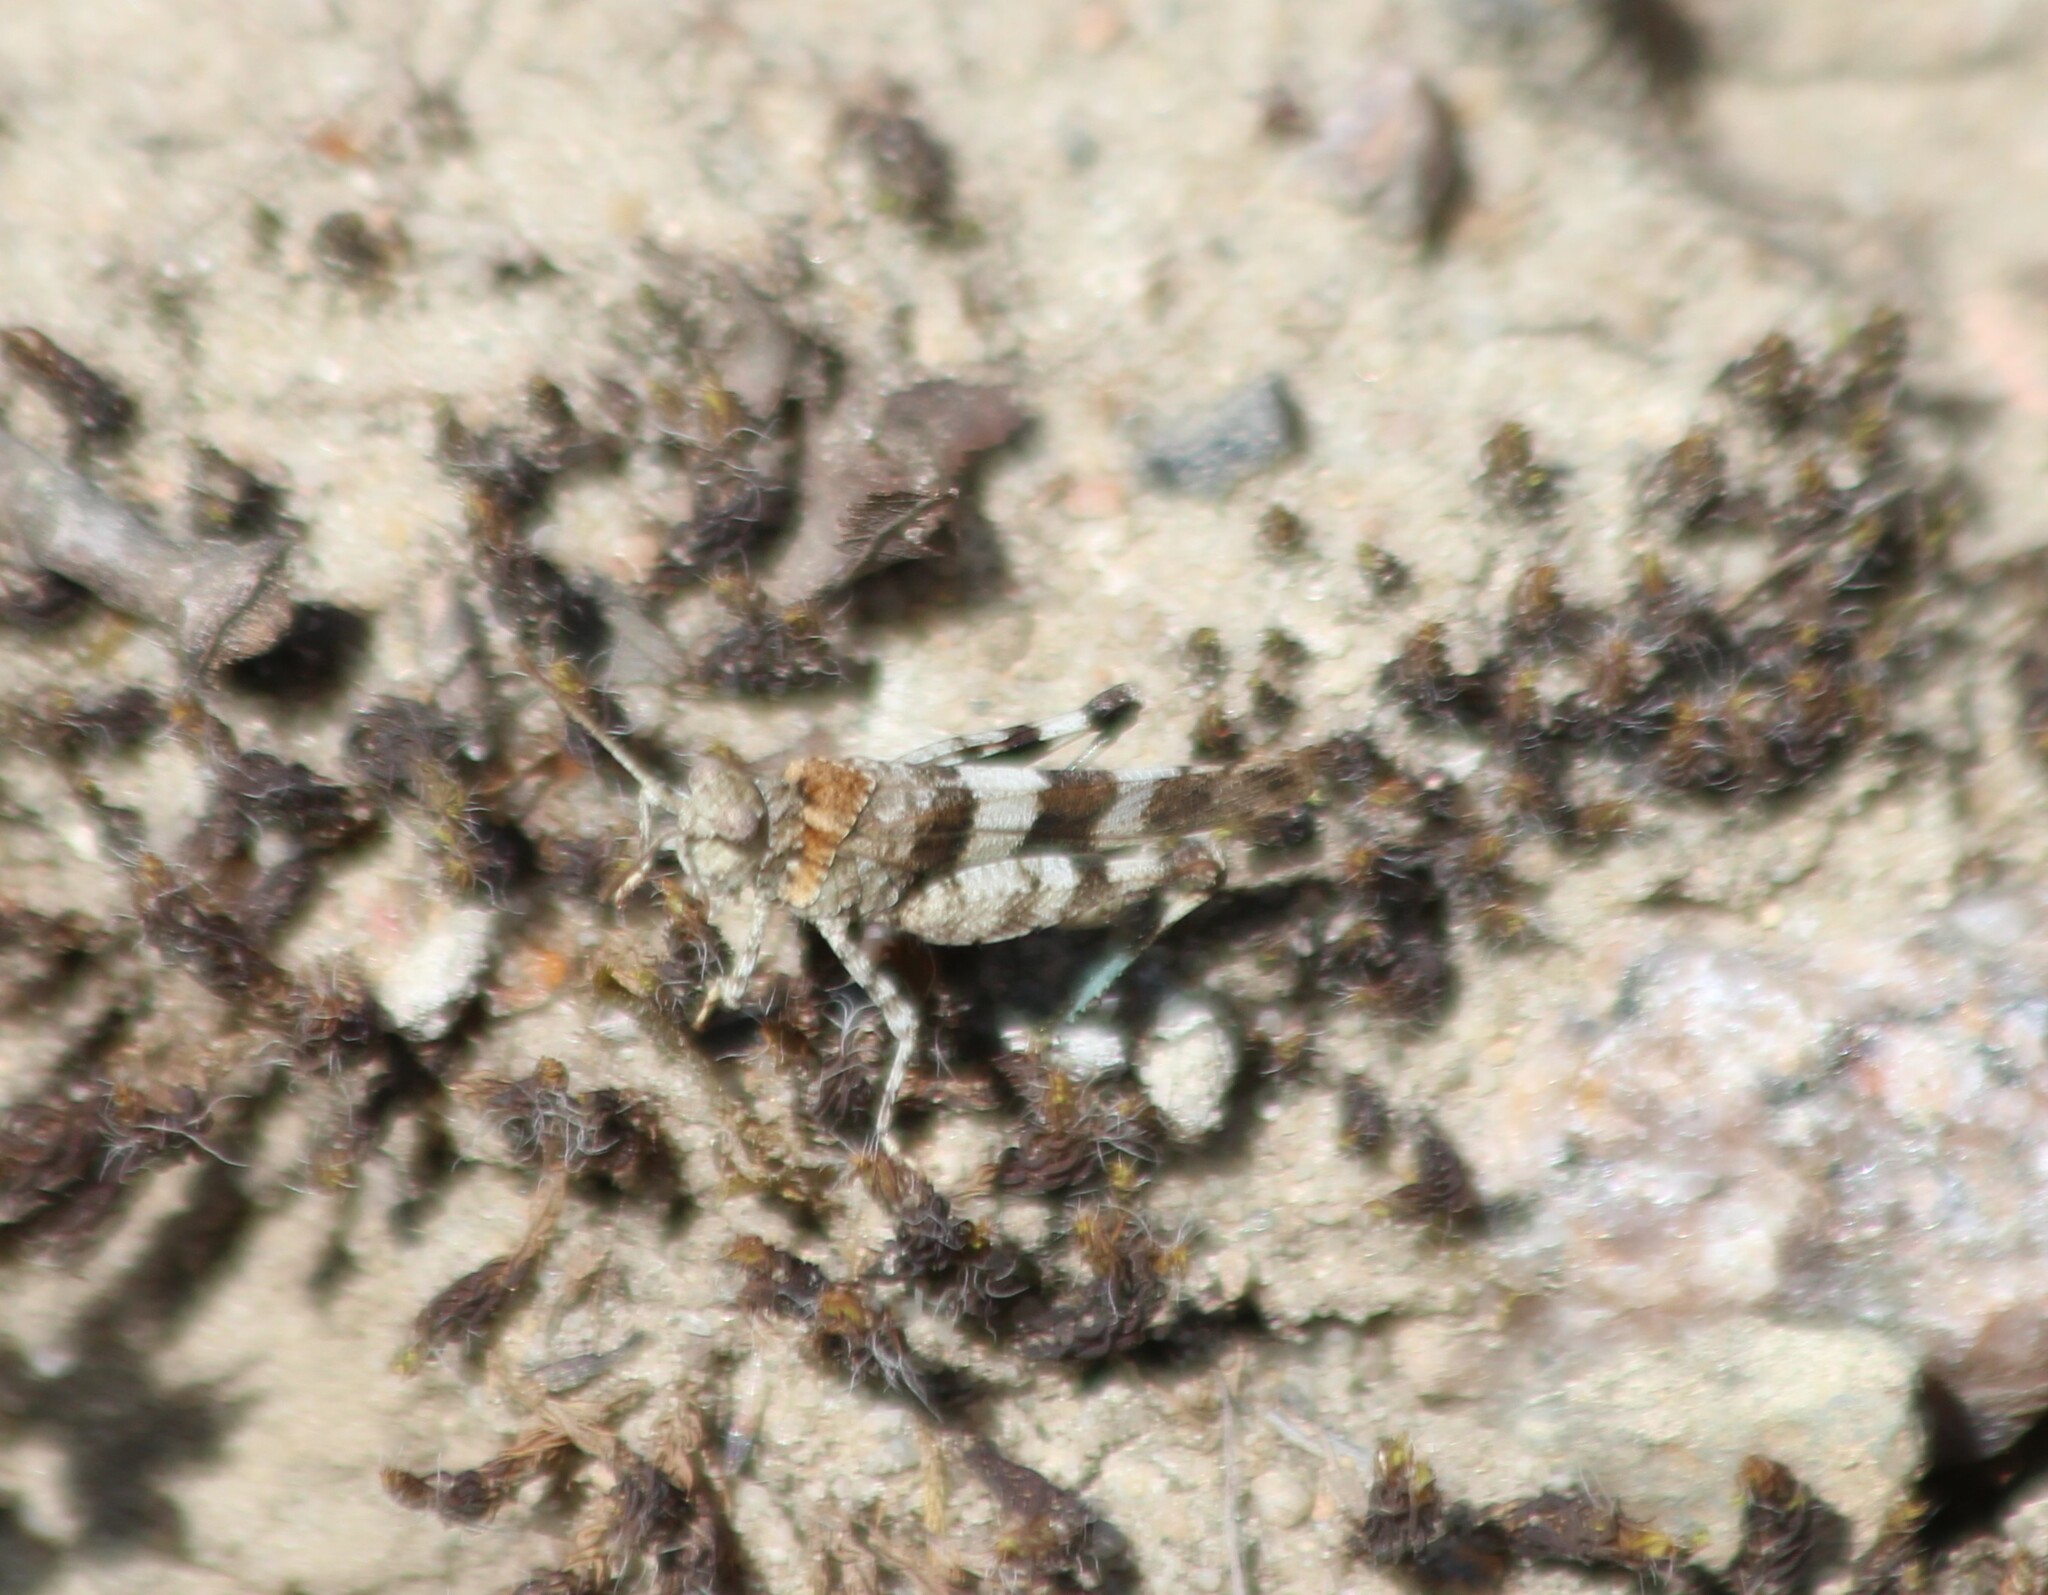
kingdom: Animalia
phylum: Arthropoda
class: Insecta
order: Orthoptera
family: Acrididae
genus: Oedipoda
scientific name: Oedipoda caerulescens
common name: Blue-winged grasshopper
